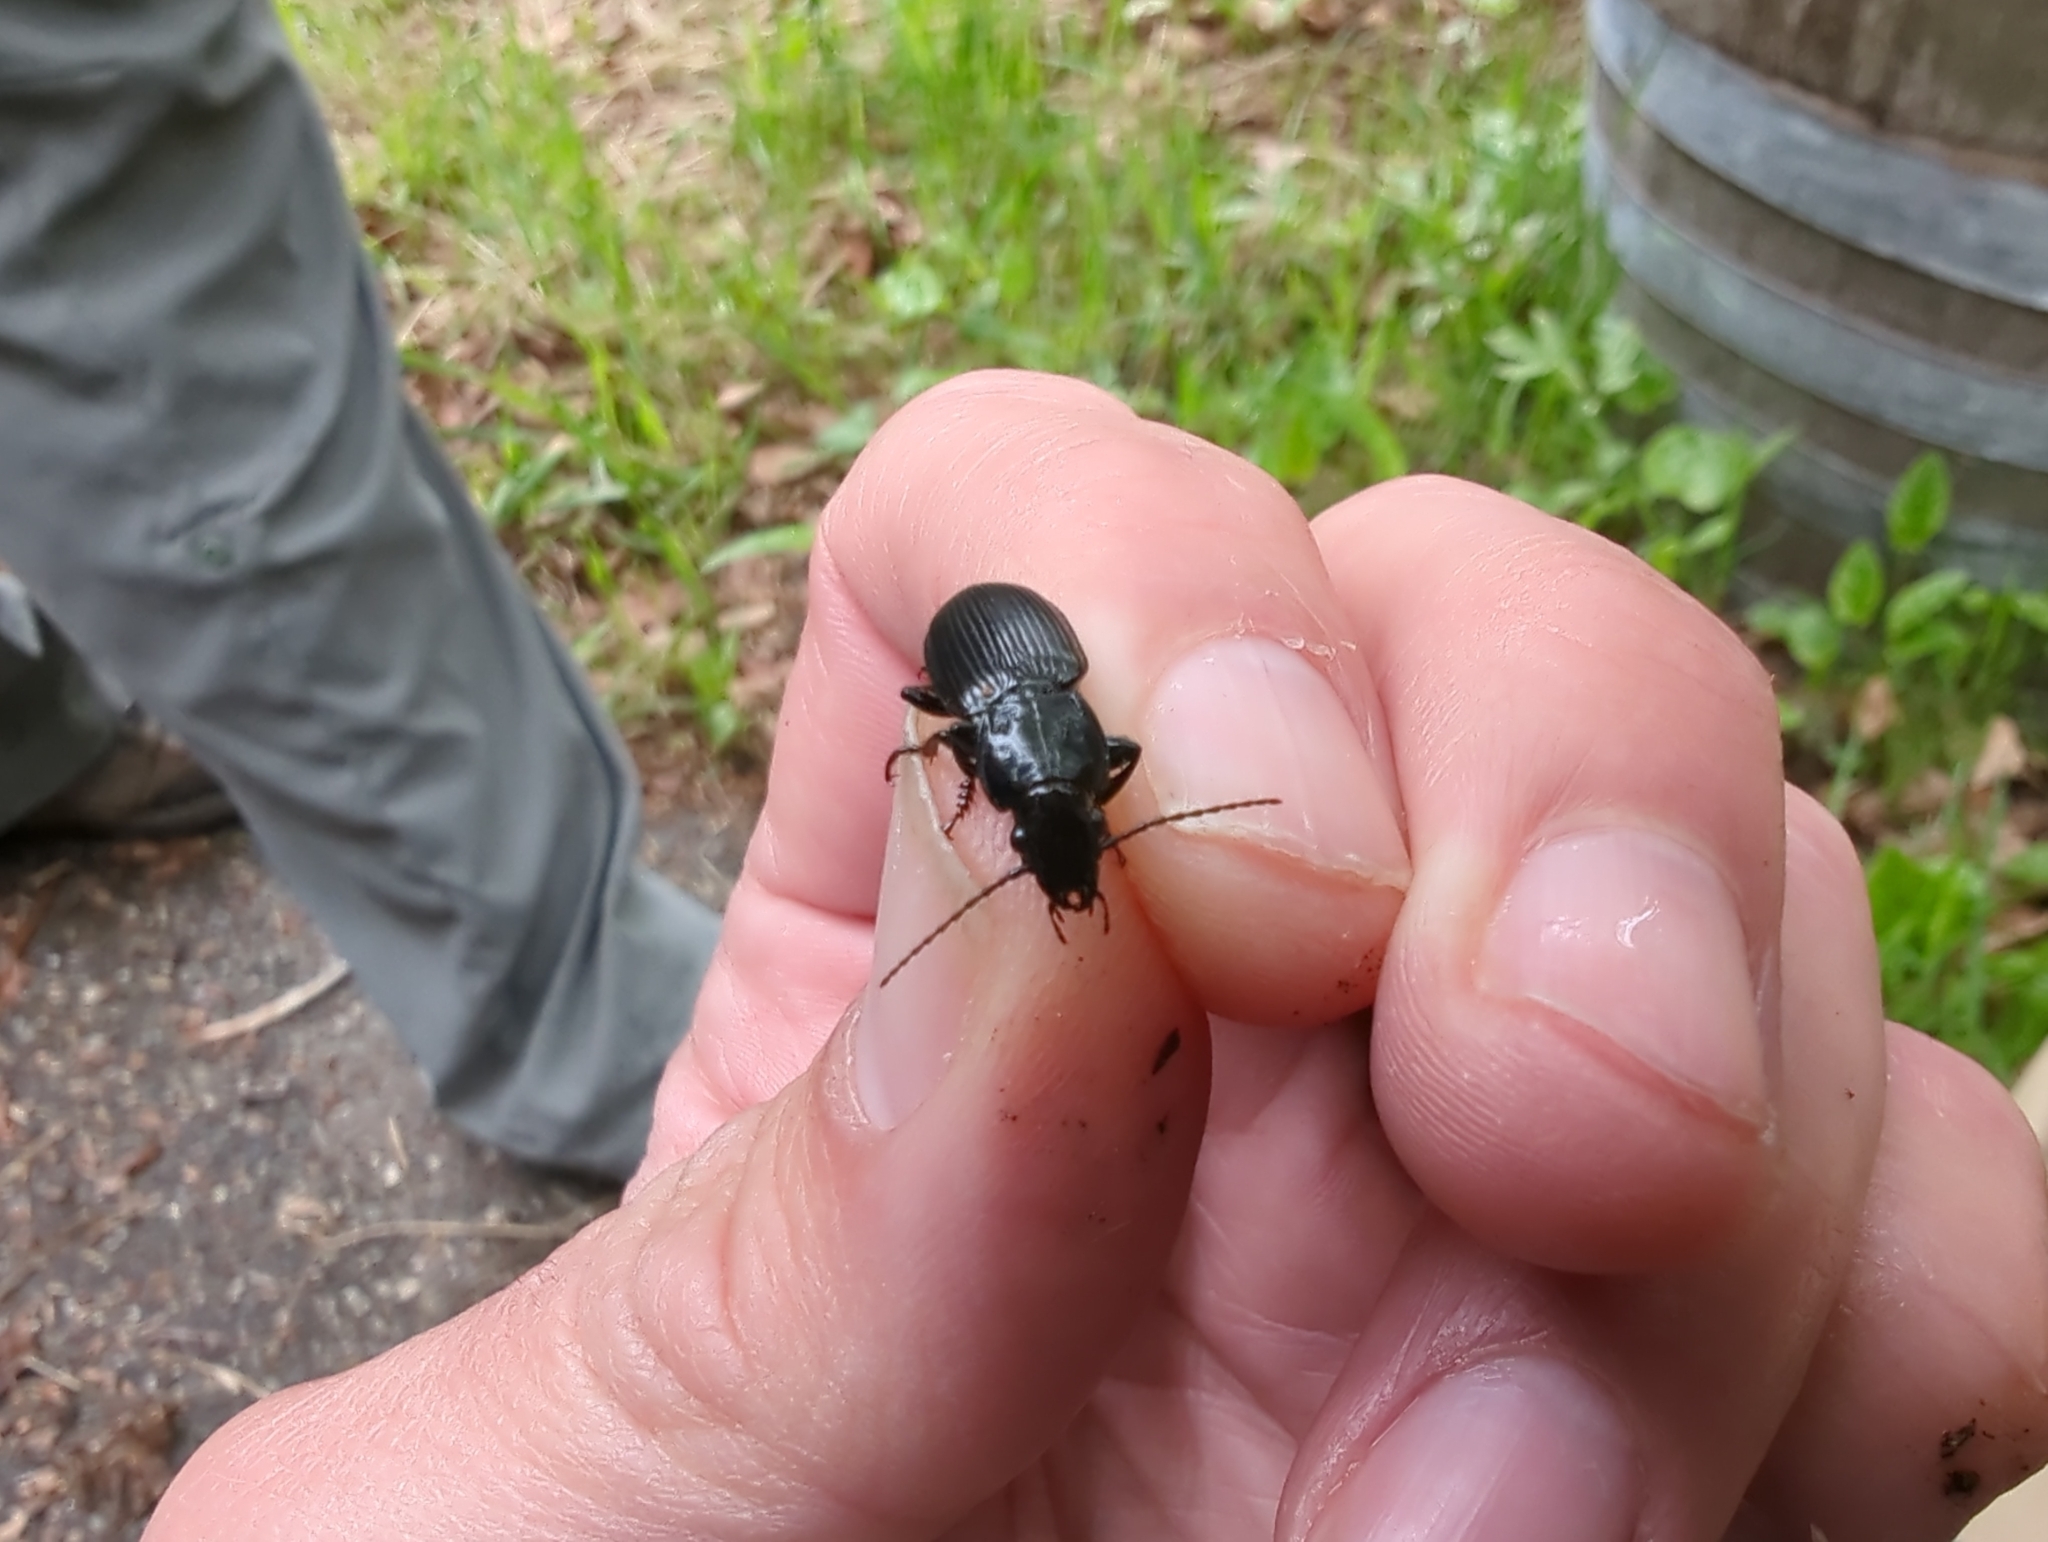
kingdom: Animalia
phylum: Arthropoda
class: Insecta
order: Coleoptera
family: Carabidae
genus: Pterostichus
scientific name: Pterostichus melanarius
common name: European dark harp ground beetle
